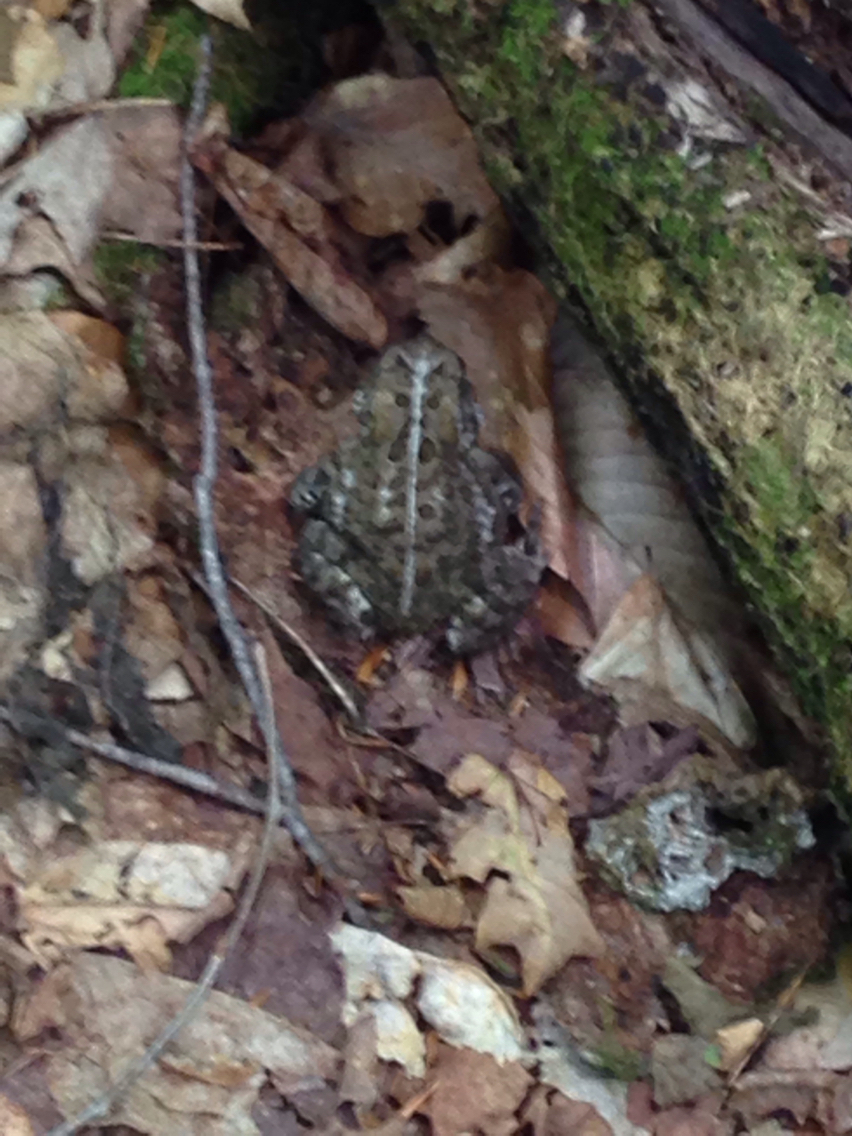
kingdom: Animalia
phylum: Chordata
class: Amphibia
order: Anura
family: Bufonidae
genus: Anaxyrus
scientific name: Anaxyrus americanus
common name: American toad
